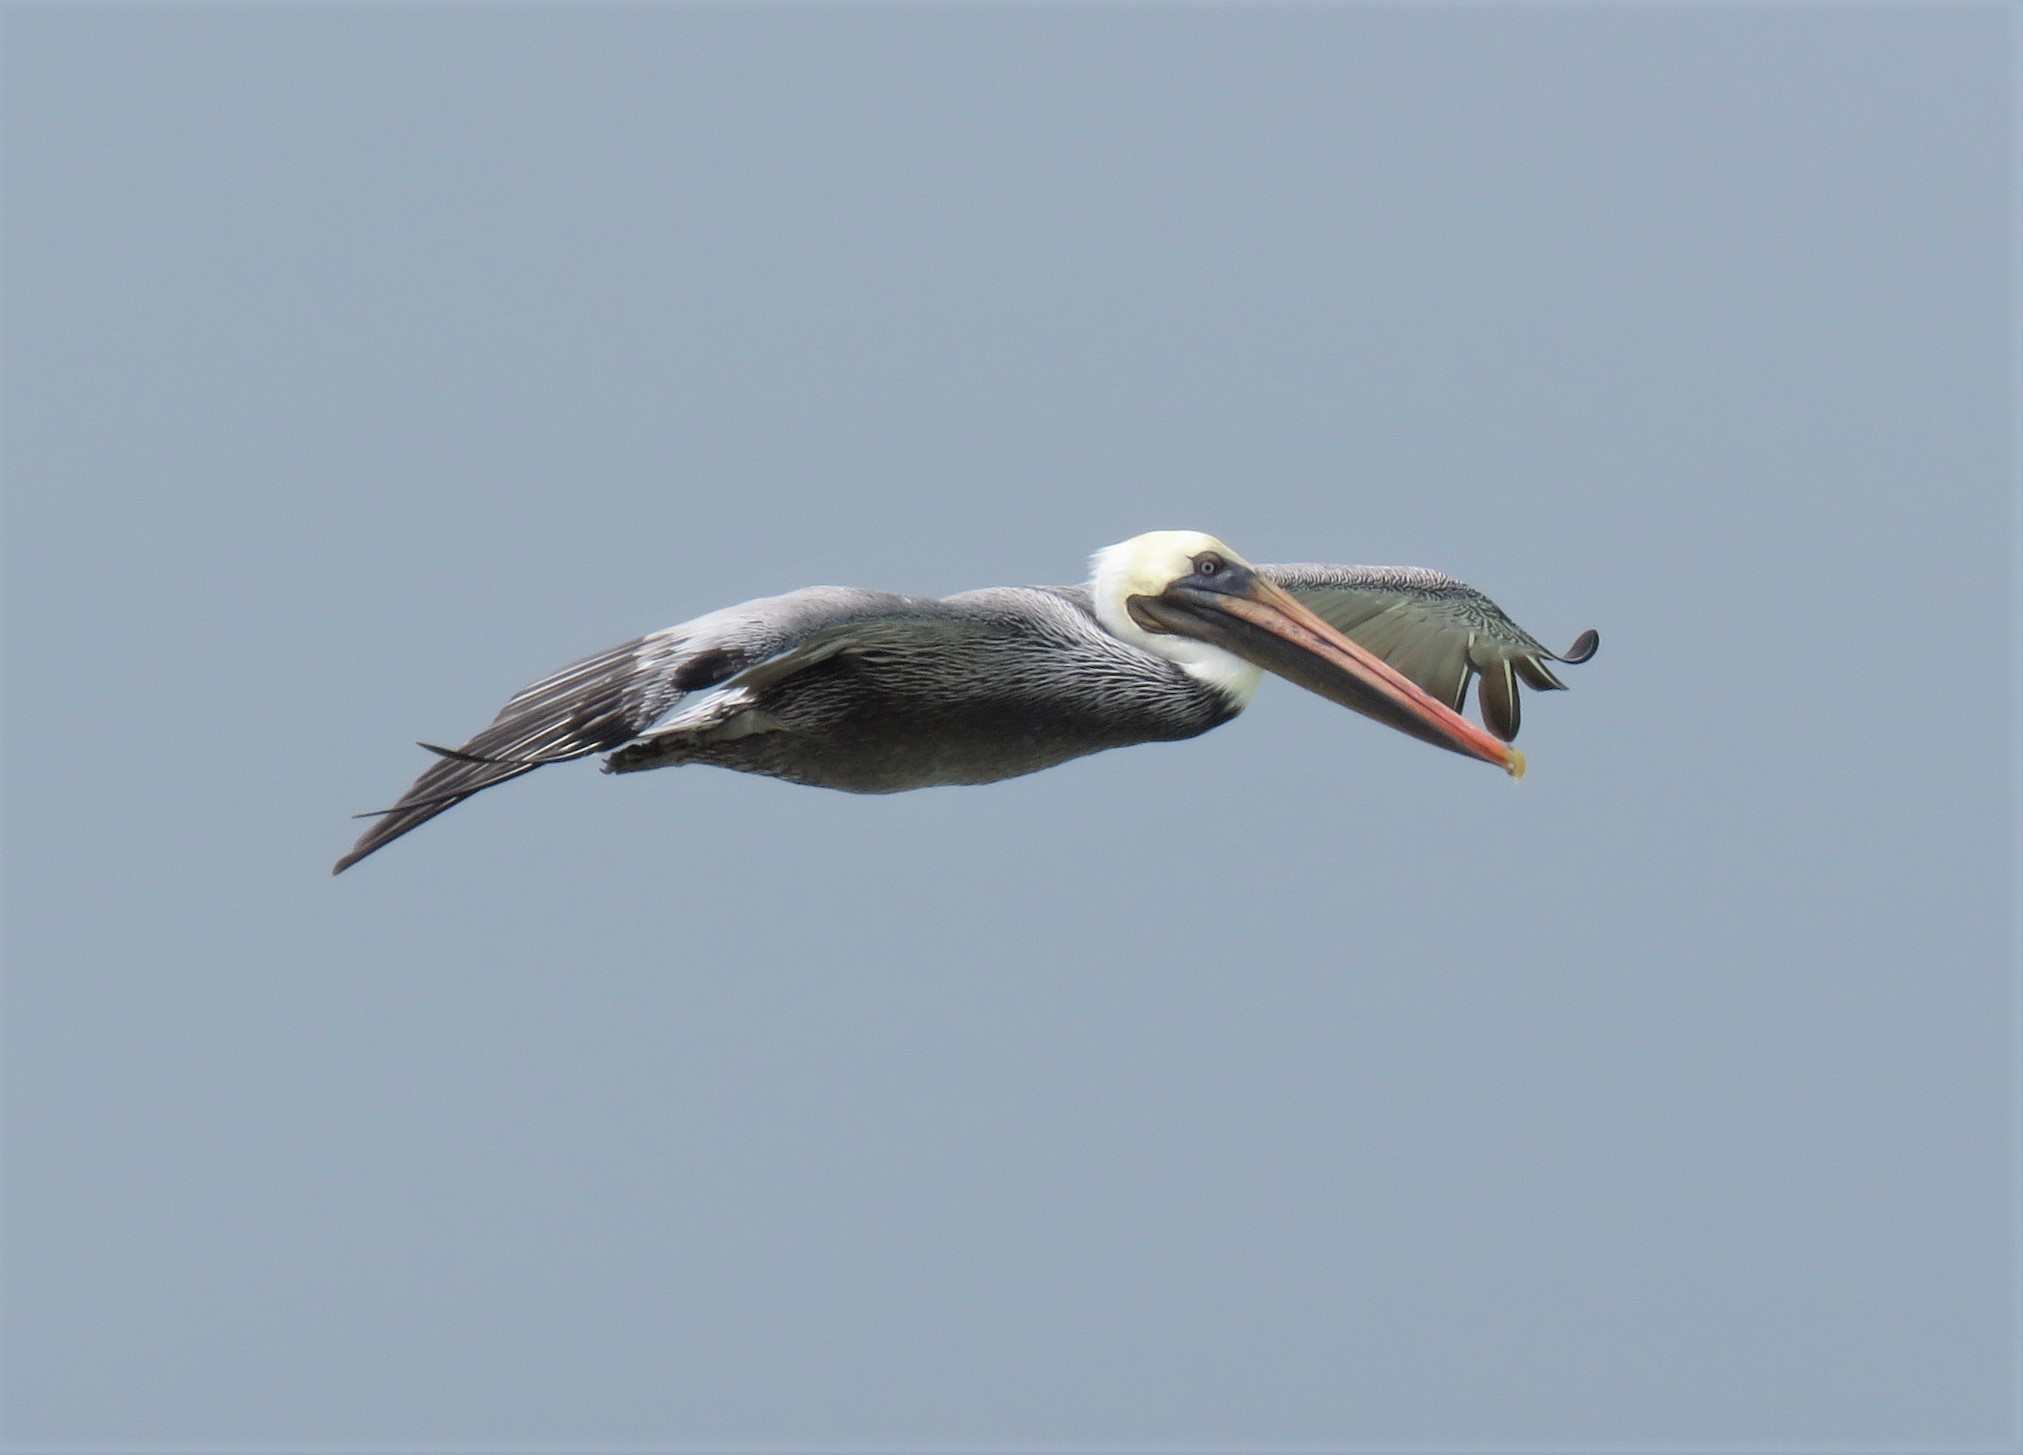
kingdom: Animalia
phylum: Chordata
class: Aves
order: Pelecaniformes
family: Pelecanidae
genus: Pelecanus
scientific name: Pelecanus occidentalis
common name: Brown pelican
